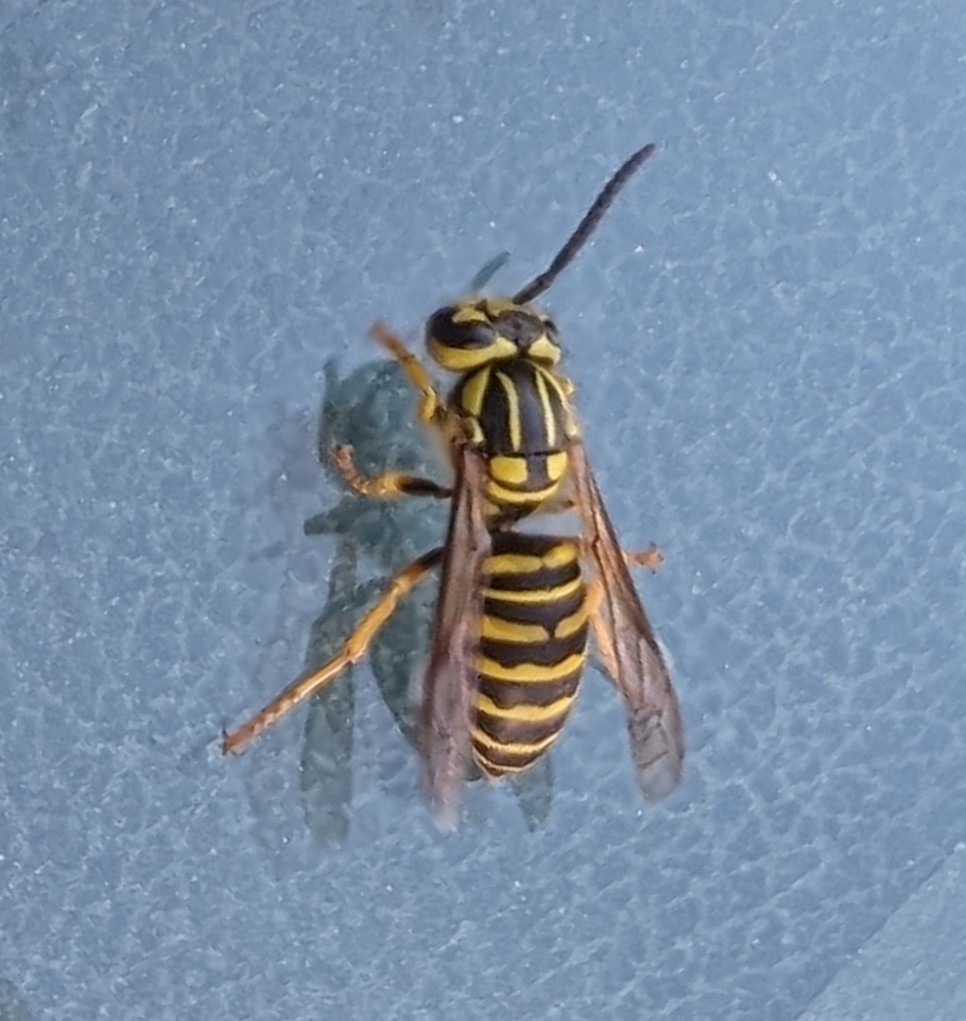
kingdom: Animalia
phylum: Arthropoda
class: Insecta
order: Hymenoptera
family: Vespidae
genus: Vespula
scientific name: Vespula squamosa
